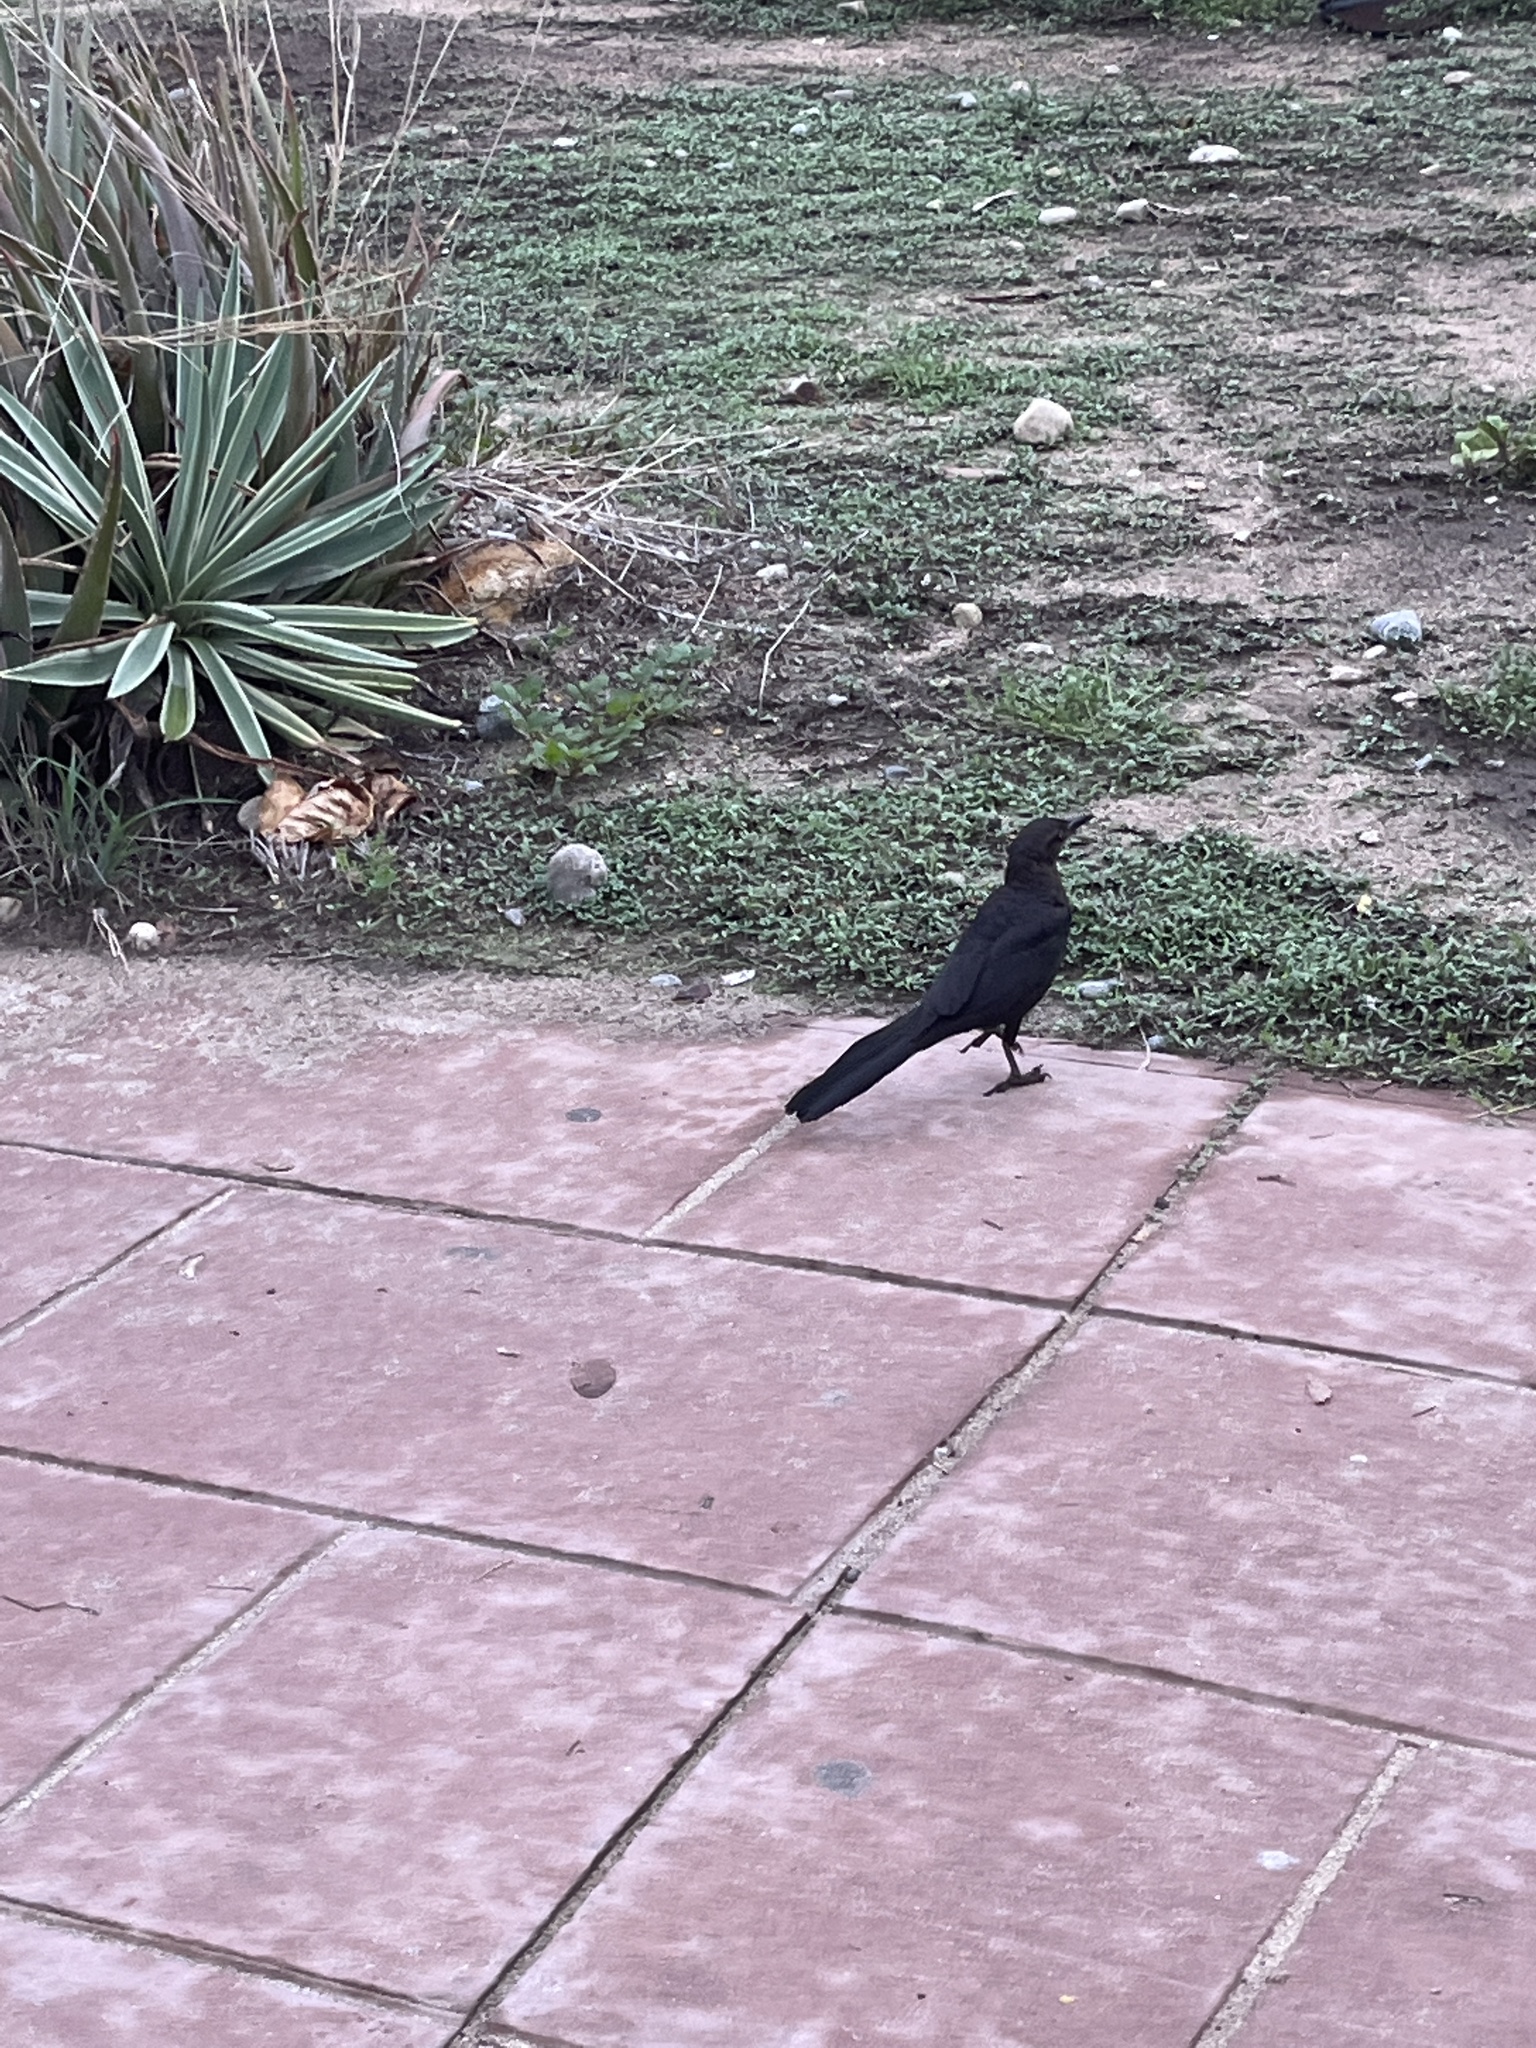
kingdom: Animalia
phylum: Chordata
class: Aves
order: Passeriformes
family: Icteridae
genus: Quiscalus
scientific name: Quiscalus mexicanus
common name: Great-tailed grackle
